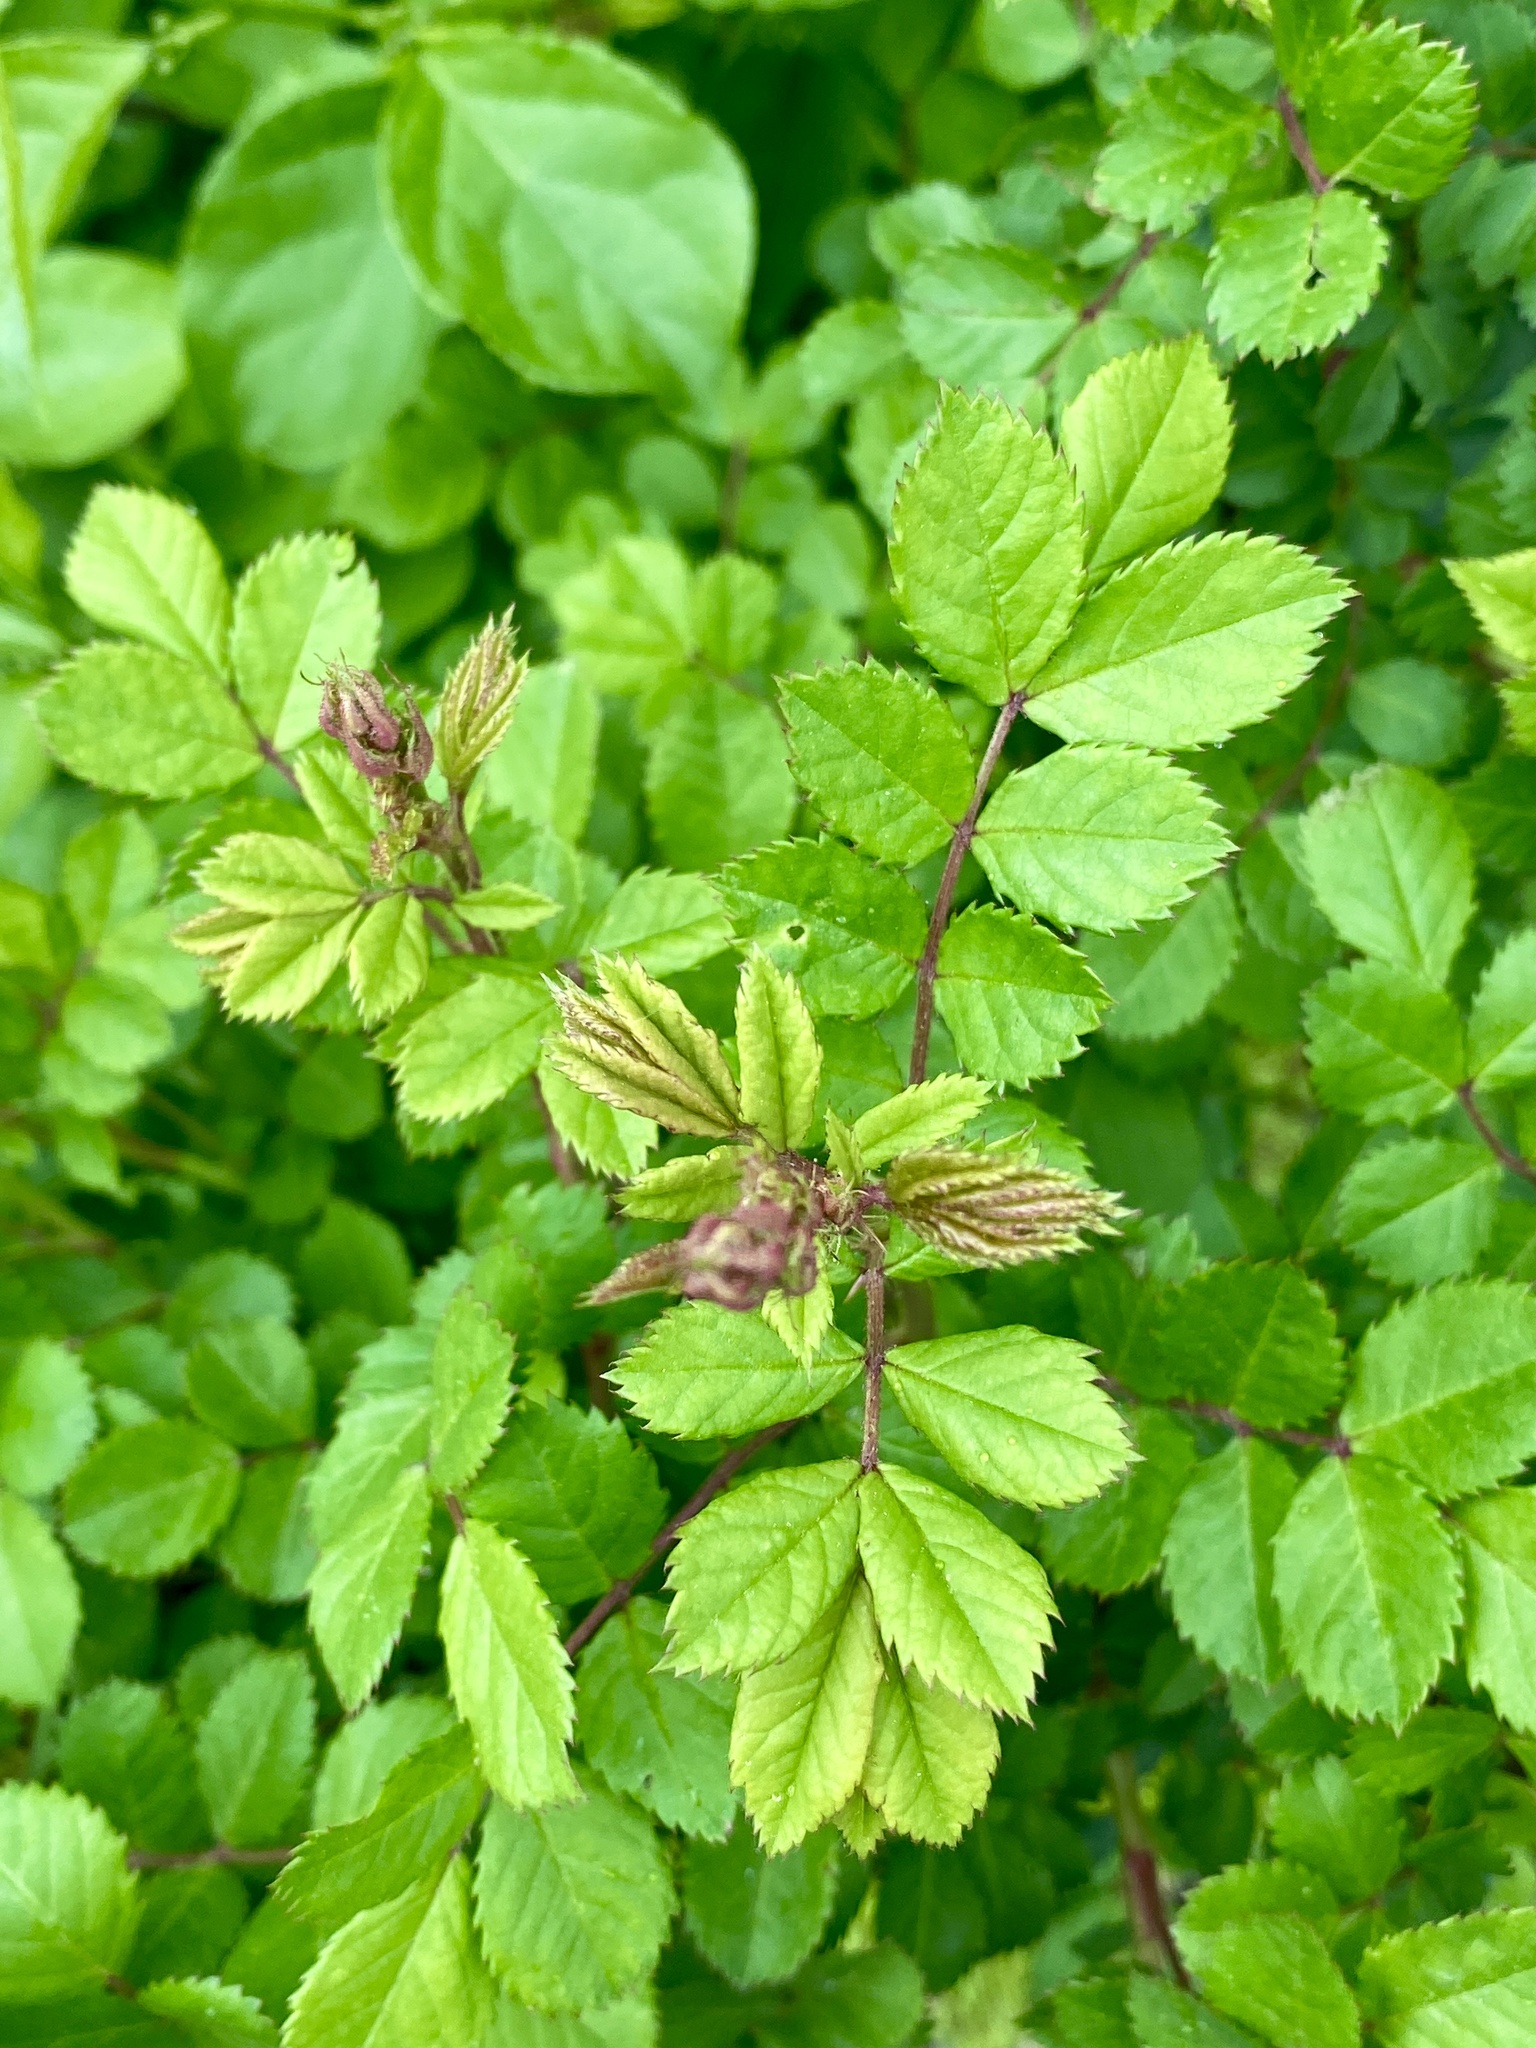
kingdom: Plantae
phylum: Tracheophyta
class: Magnoliopsida
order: Rosales
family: Rosaceae
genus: Rosa
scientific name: Rosa multiflora
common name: Multiflora rose
